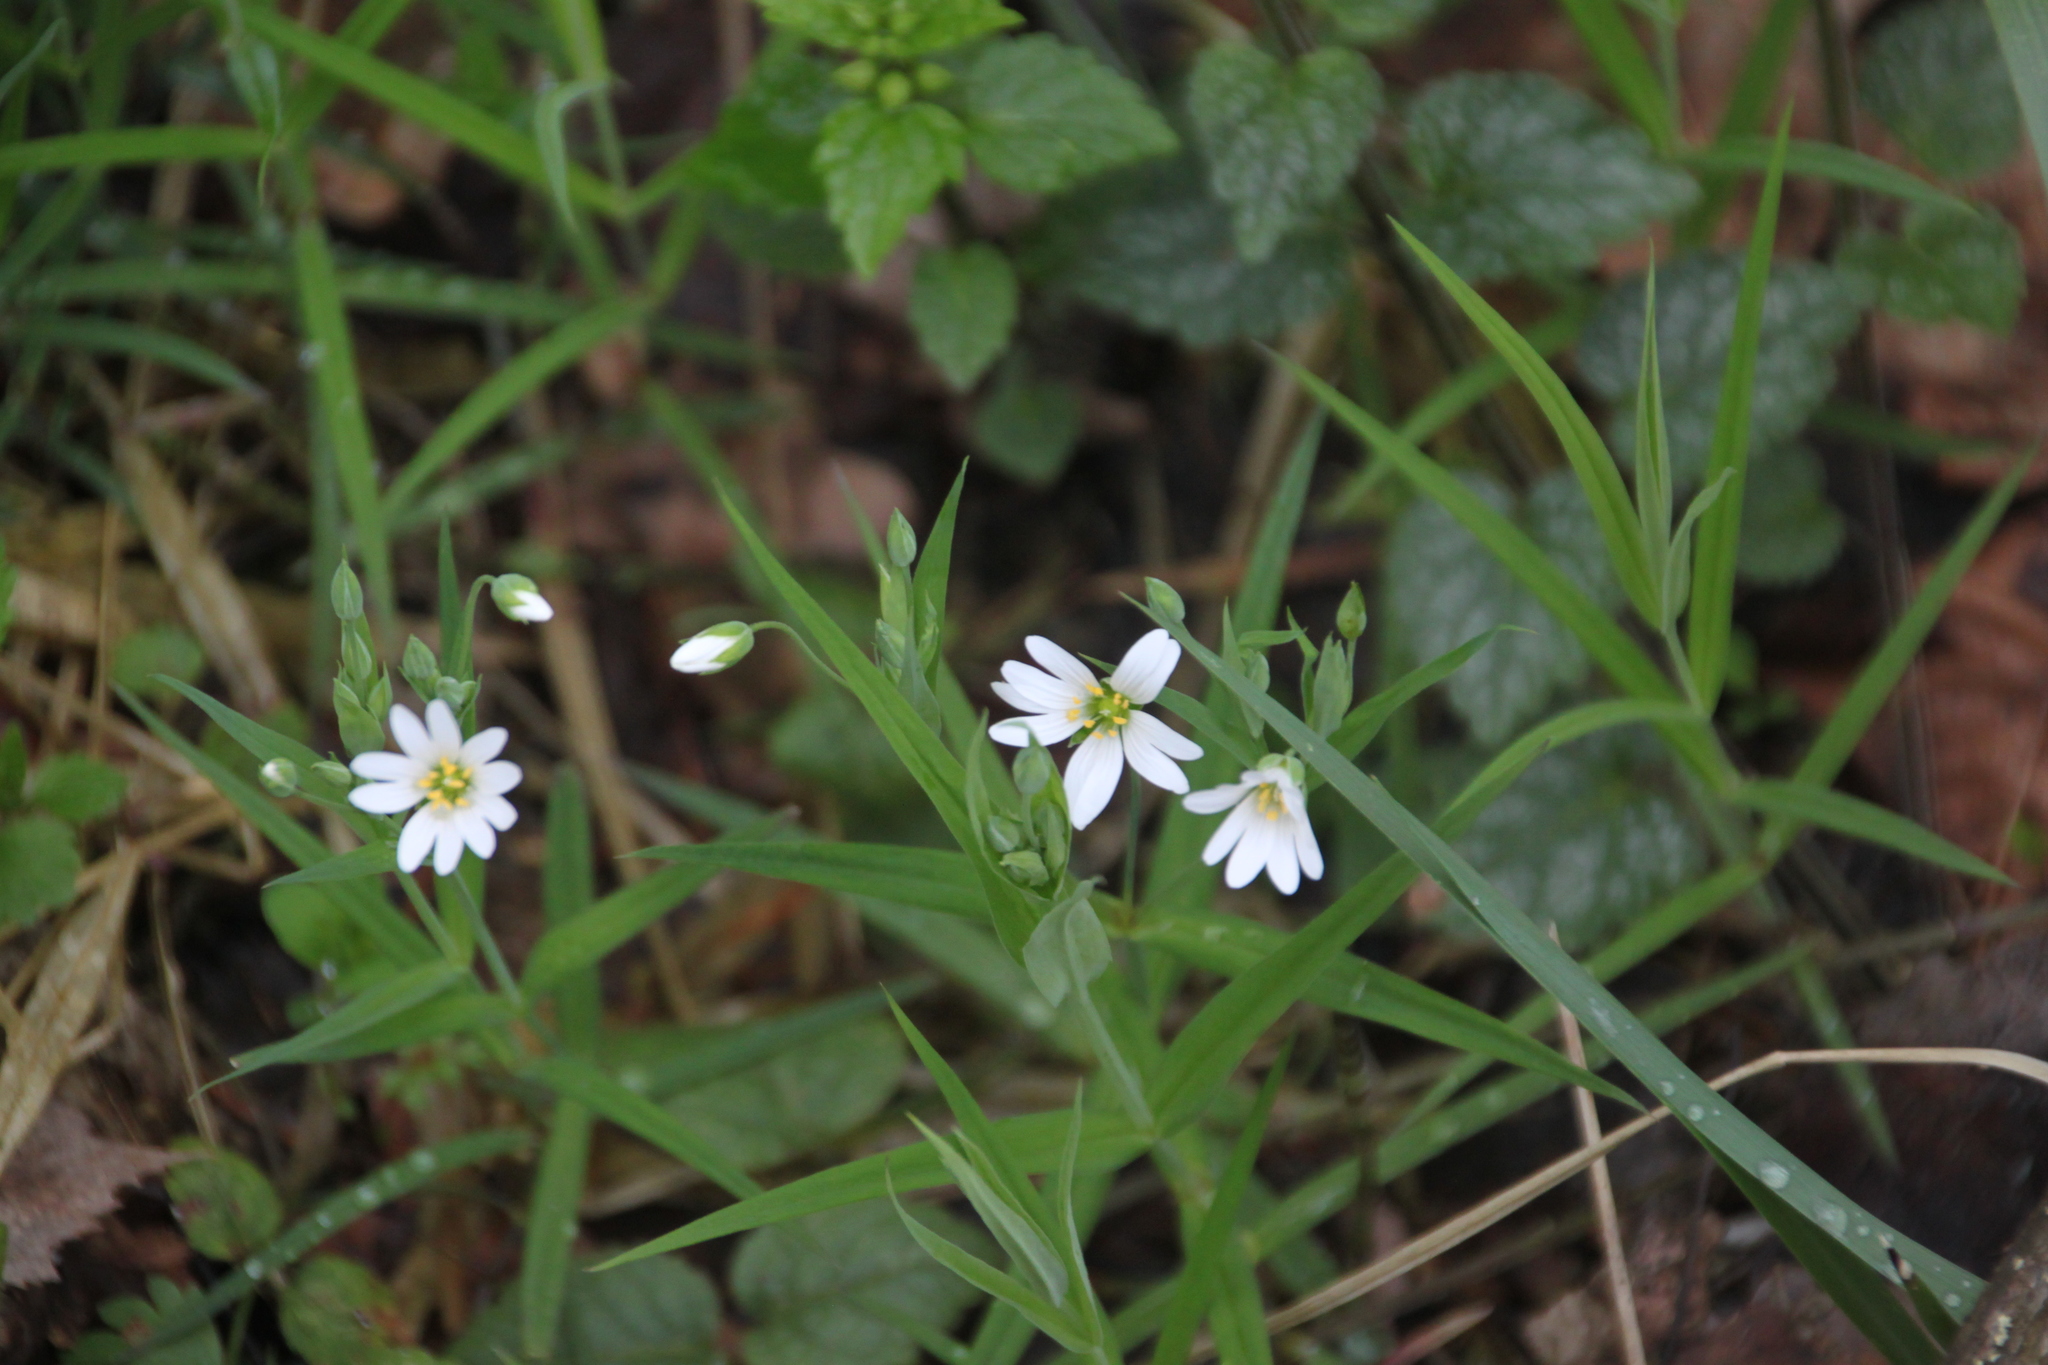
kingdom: Plantae
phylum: Tracheophyta
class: Magnoliopsida
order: Caryophyllales
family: Caryophyllaceae
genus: Rabelera
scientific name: Rabelera holostea
